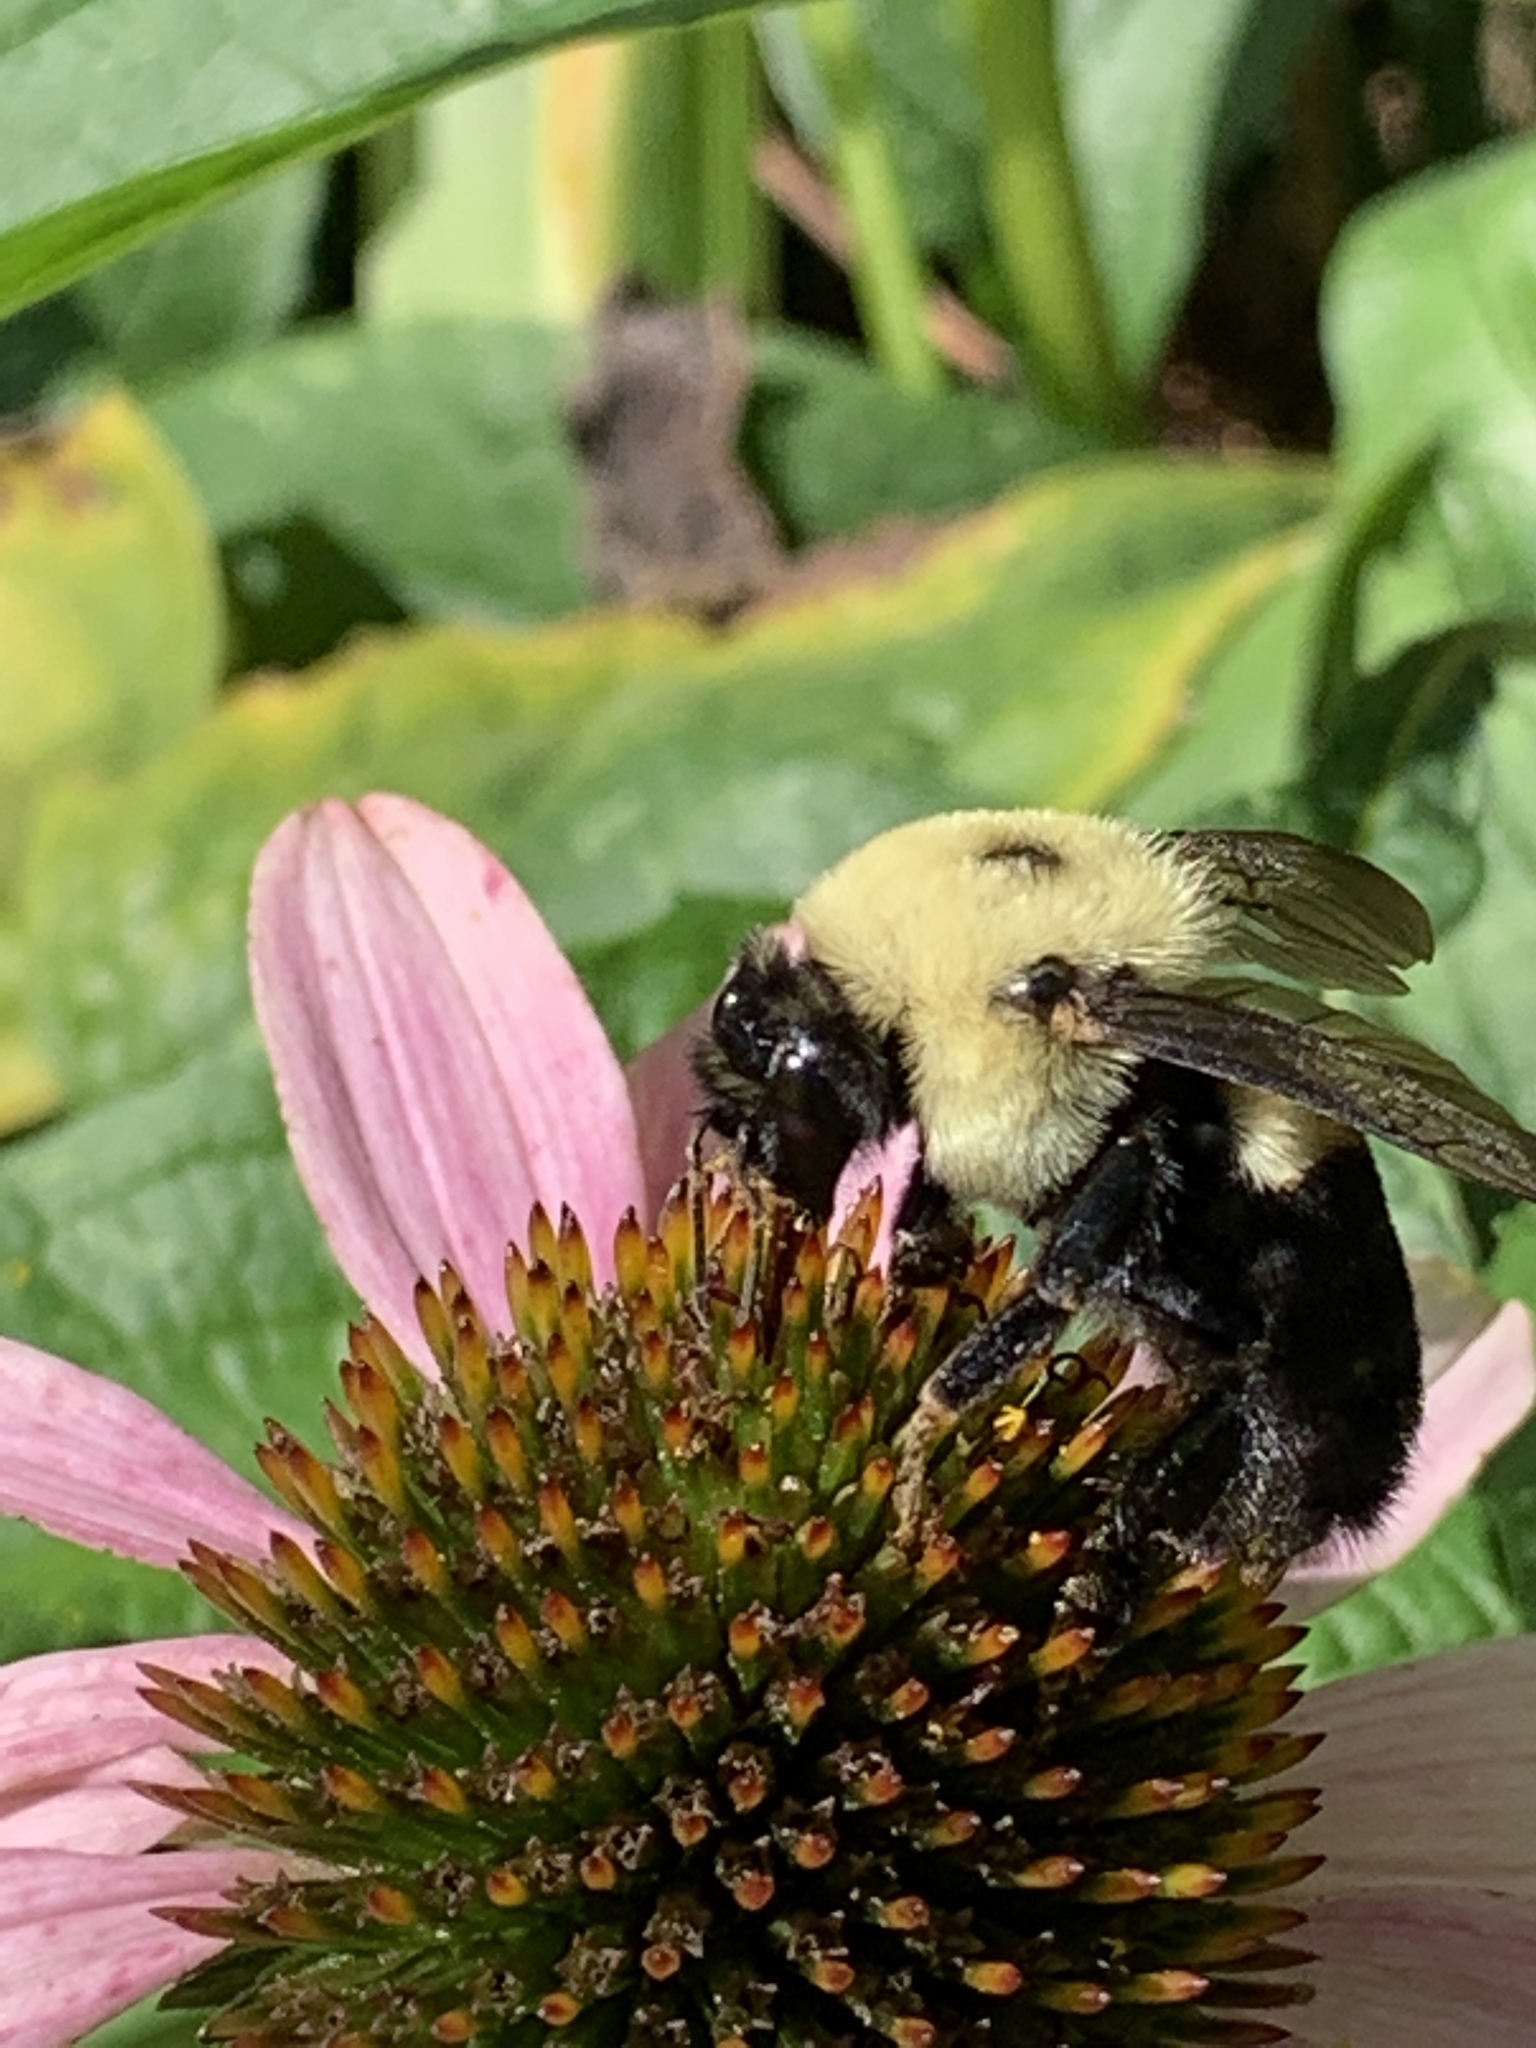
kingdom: Animalia
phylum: Arthropoda
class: Insecta
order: Hymenoptera
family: Apidae
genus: Bombus
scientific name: Bombus griseocollis
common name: Brown-belted bumble bee
